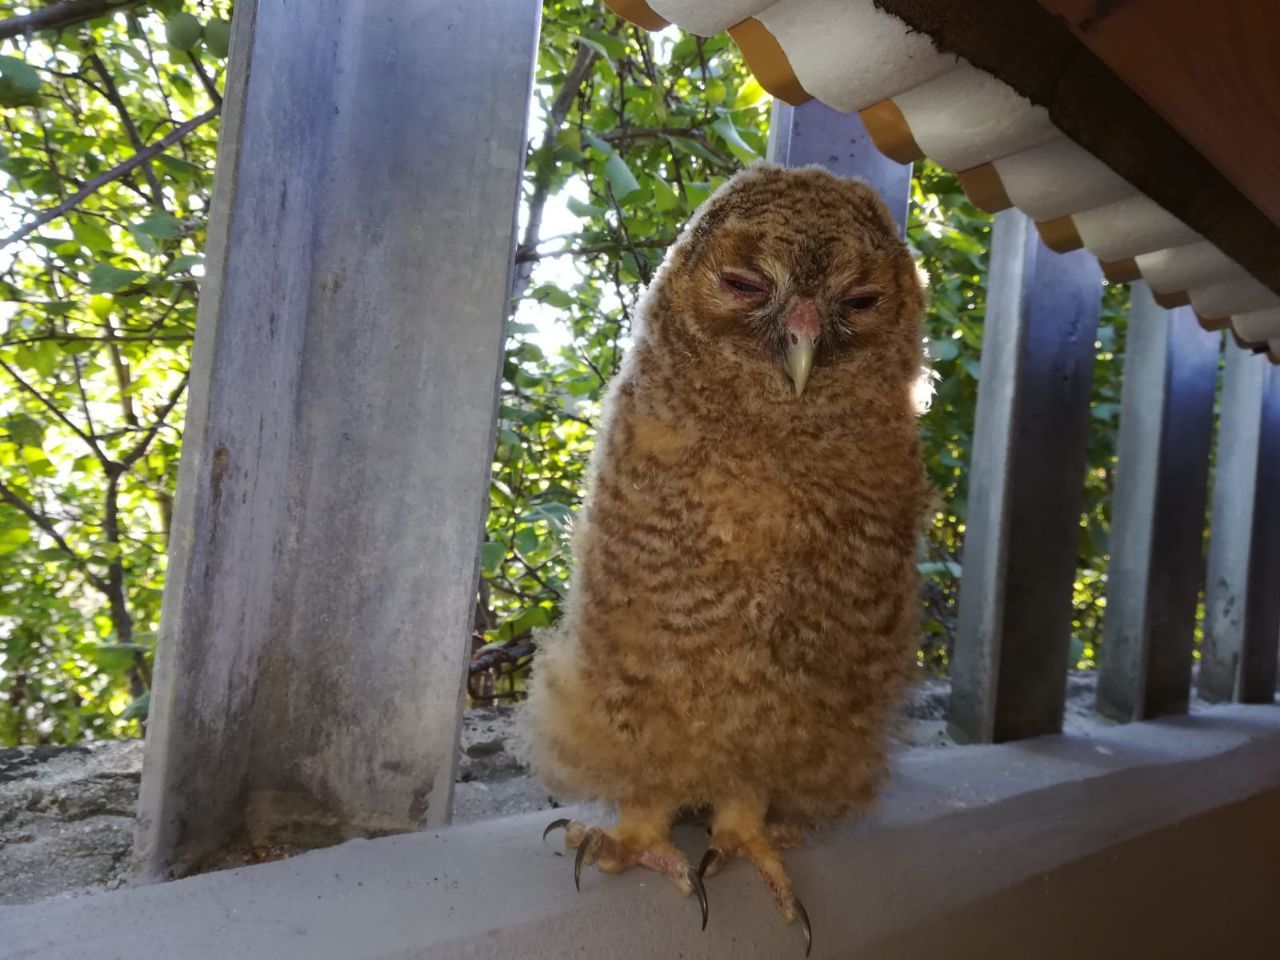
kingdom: Animalia
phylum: Chordata
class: Aves
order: Strigiformes
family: Strigidae
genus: Strix
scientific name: Strix aluco
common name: Tawny owl
